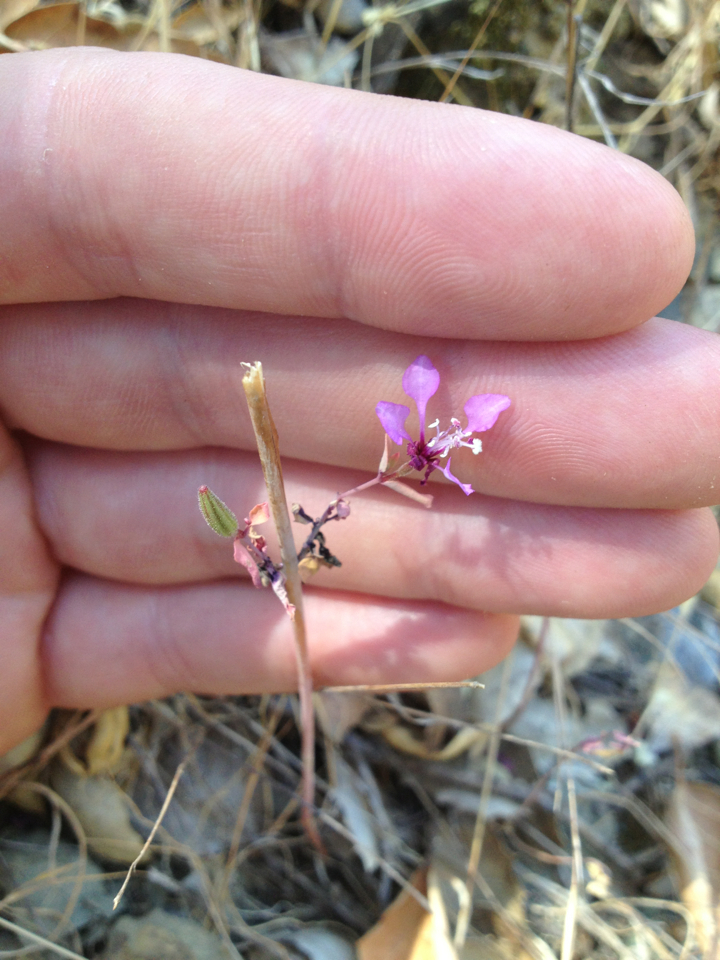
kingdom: Plantae
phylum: Tracheophyta
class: Magnoliopsida
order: Myrtales
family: Onagraceae
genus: Clarkia
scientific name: Clarkia unguiculata
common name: Clarkia
